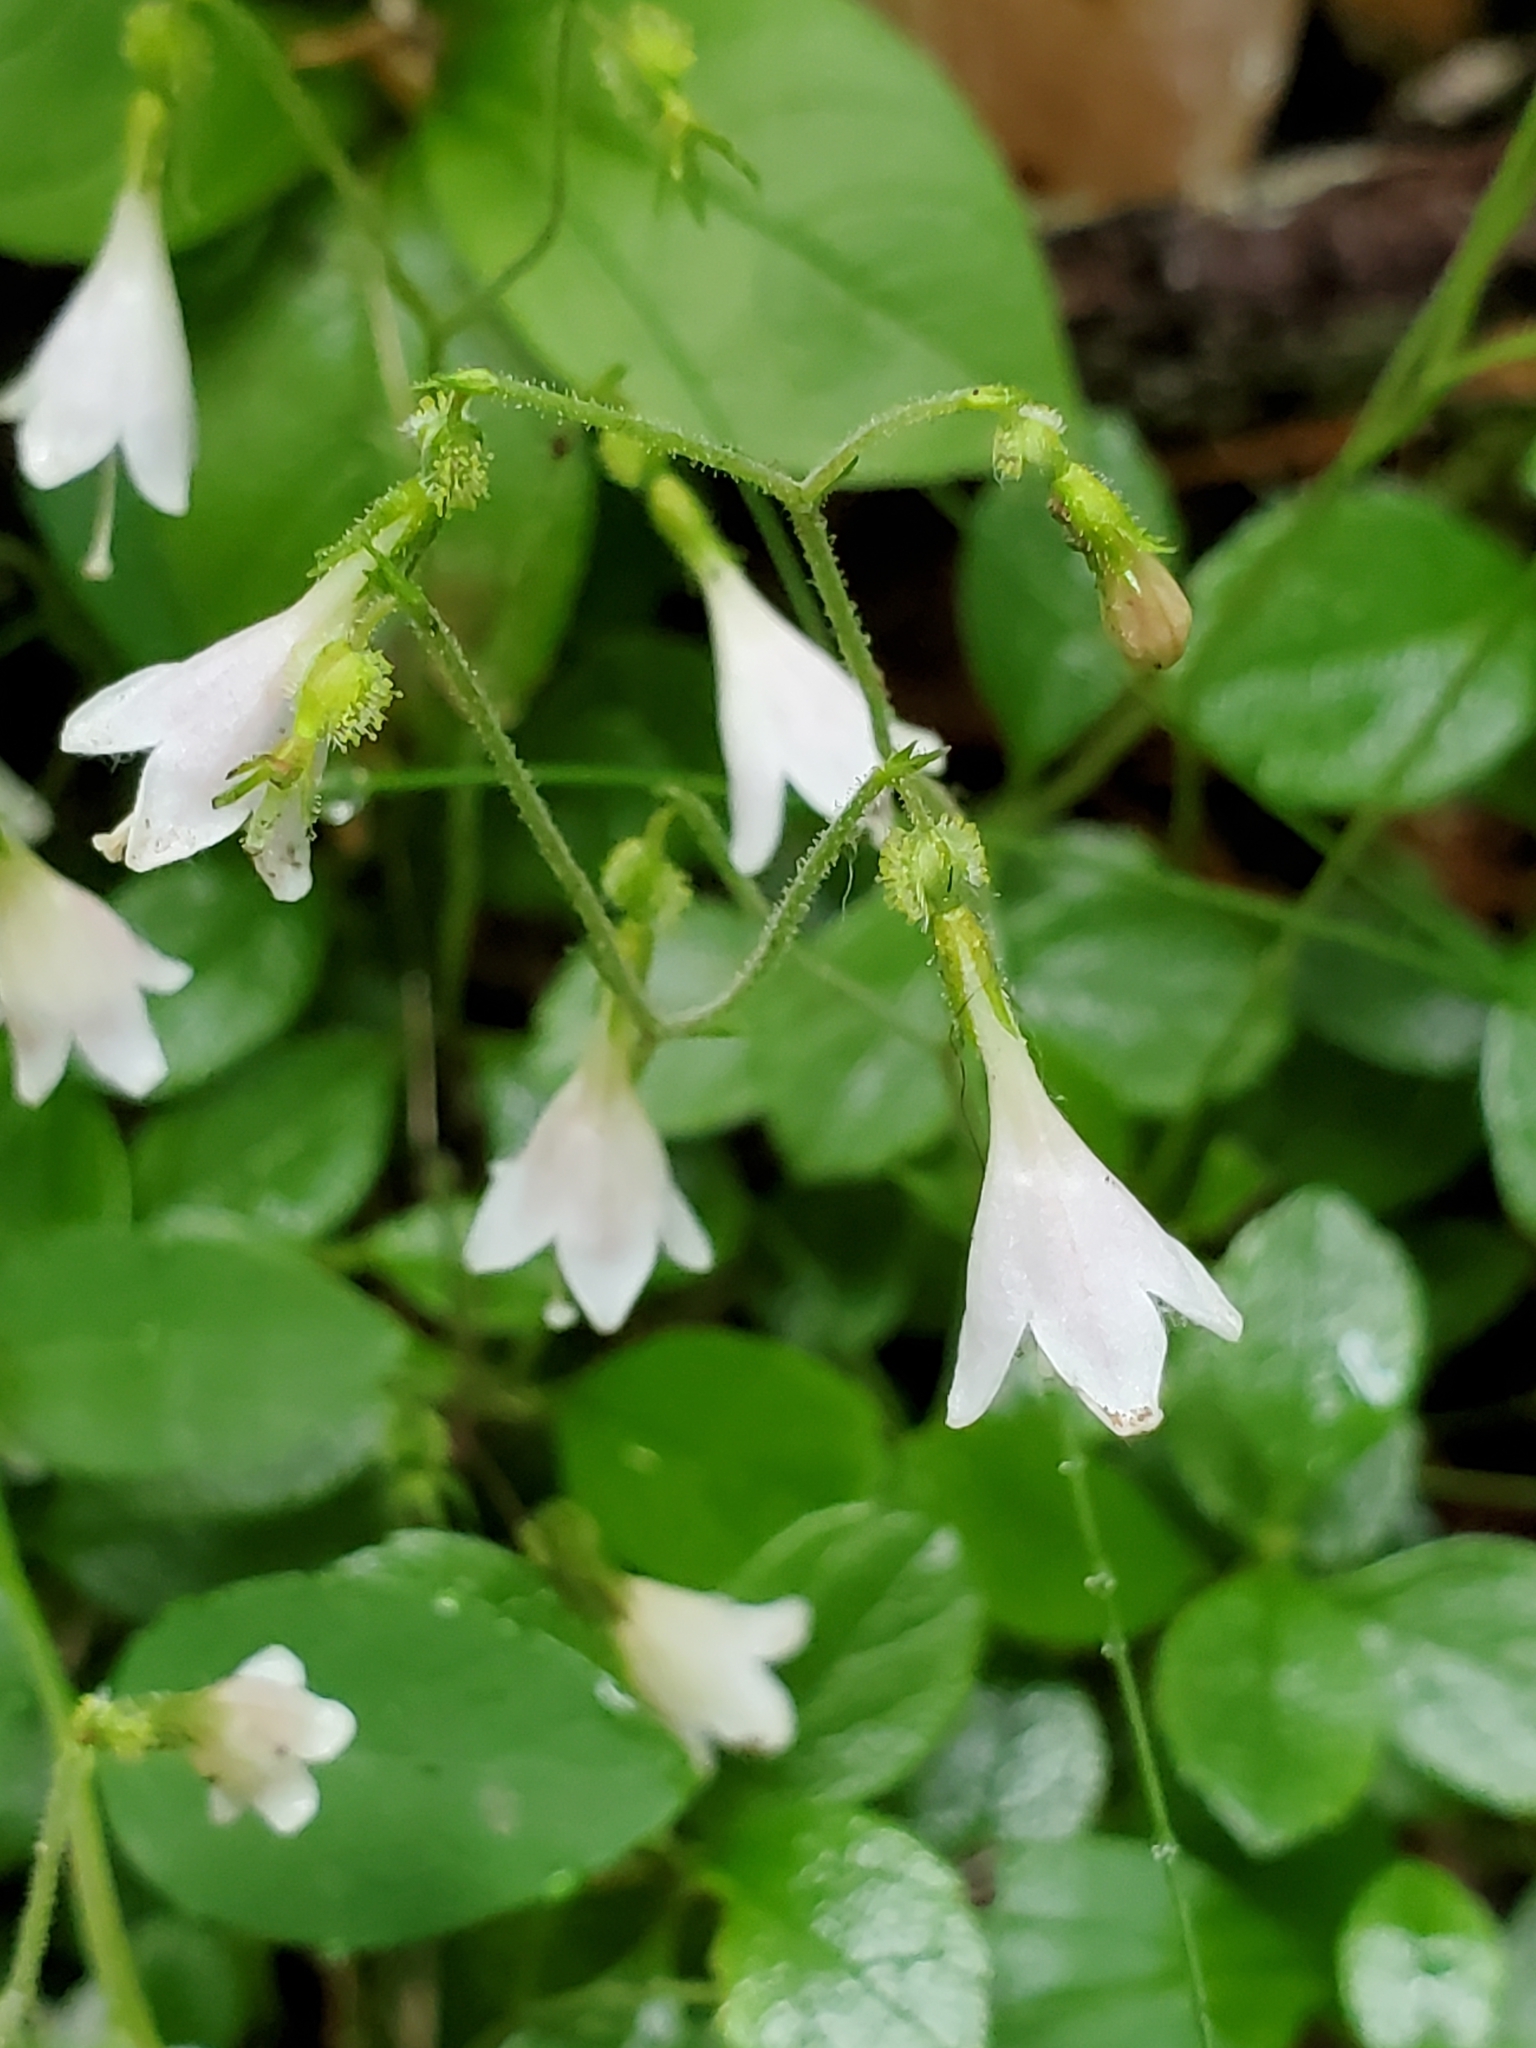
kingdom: Plantae
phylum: Tracheophyta
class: Magnoliopsida
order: Dipsacales
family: Caprifoliaceae
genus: Linnaea
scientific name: Linnaea borealis
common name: Twinflower
